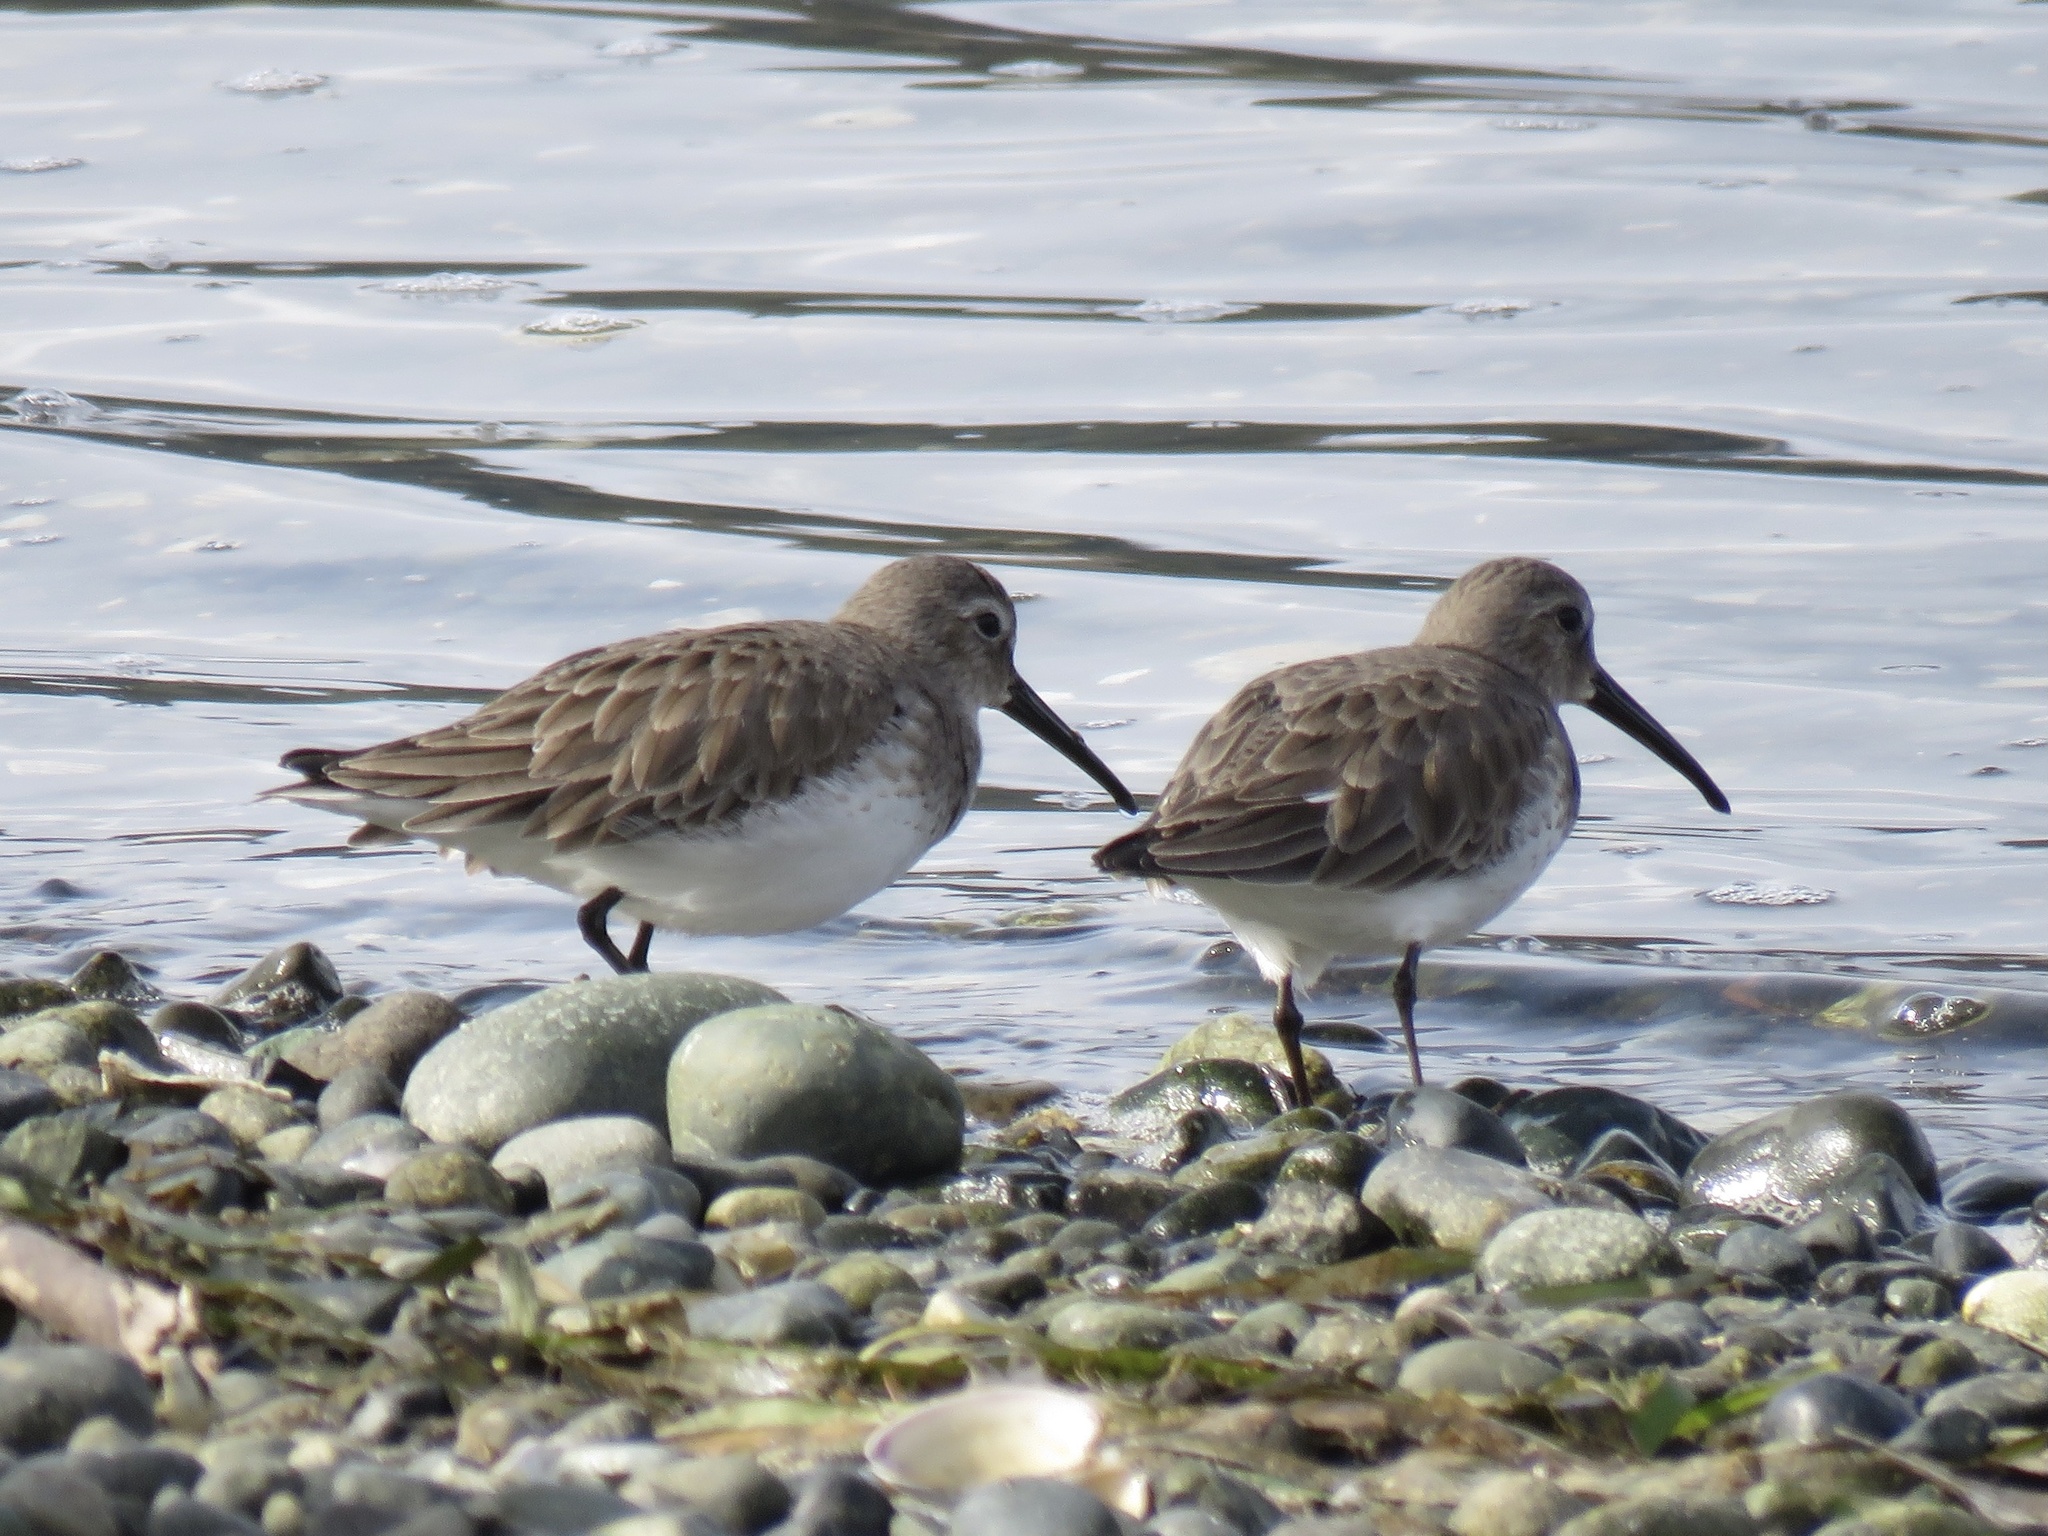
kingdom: Animalia
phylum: Chordata
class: Aves
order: Charadriiformes
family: Scolopacidae
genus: Calidris
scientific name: Calidris alpina
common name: Dunlin
